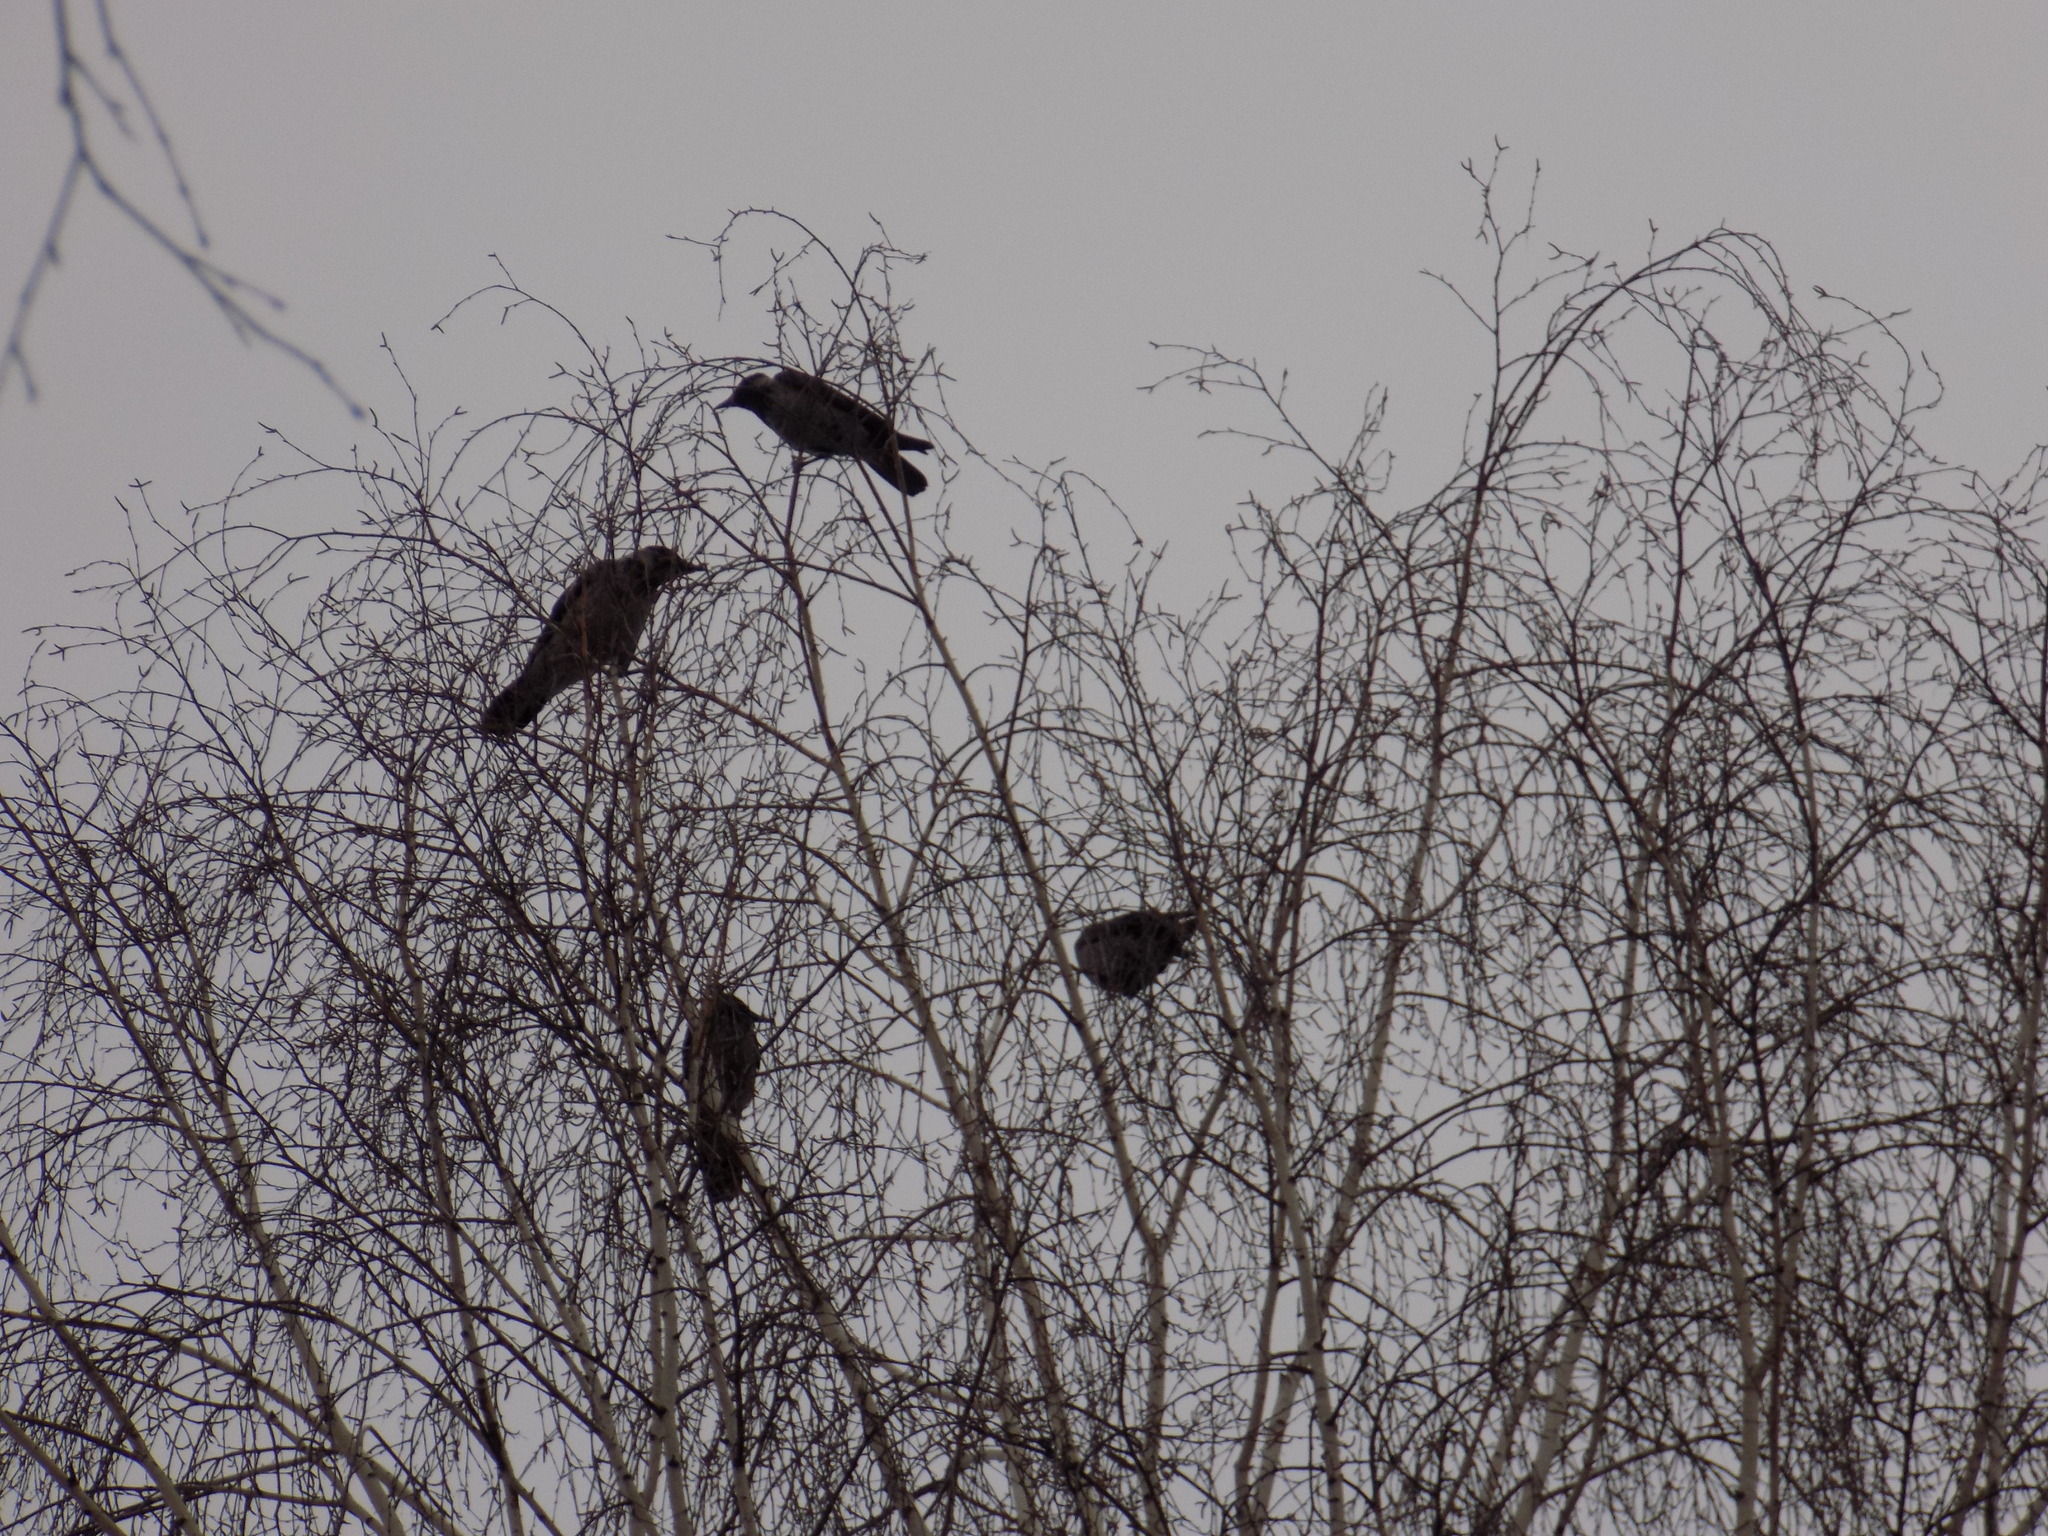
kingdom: Animalia
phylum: Chordata
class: Aves
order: Passeriformes
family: Corvidae
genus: Corvus
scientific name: Corvus cornix
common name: Hooded crow
